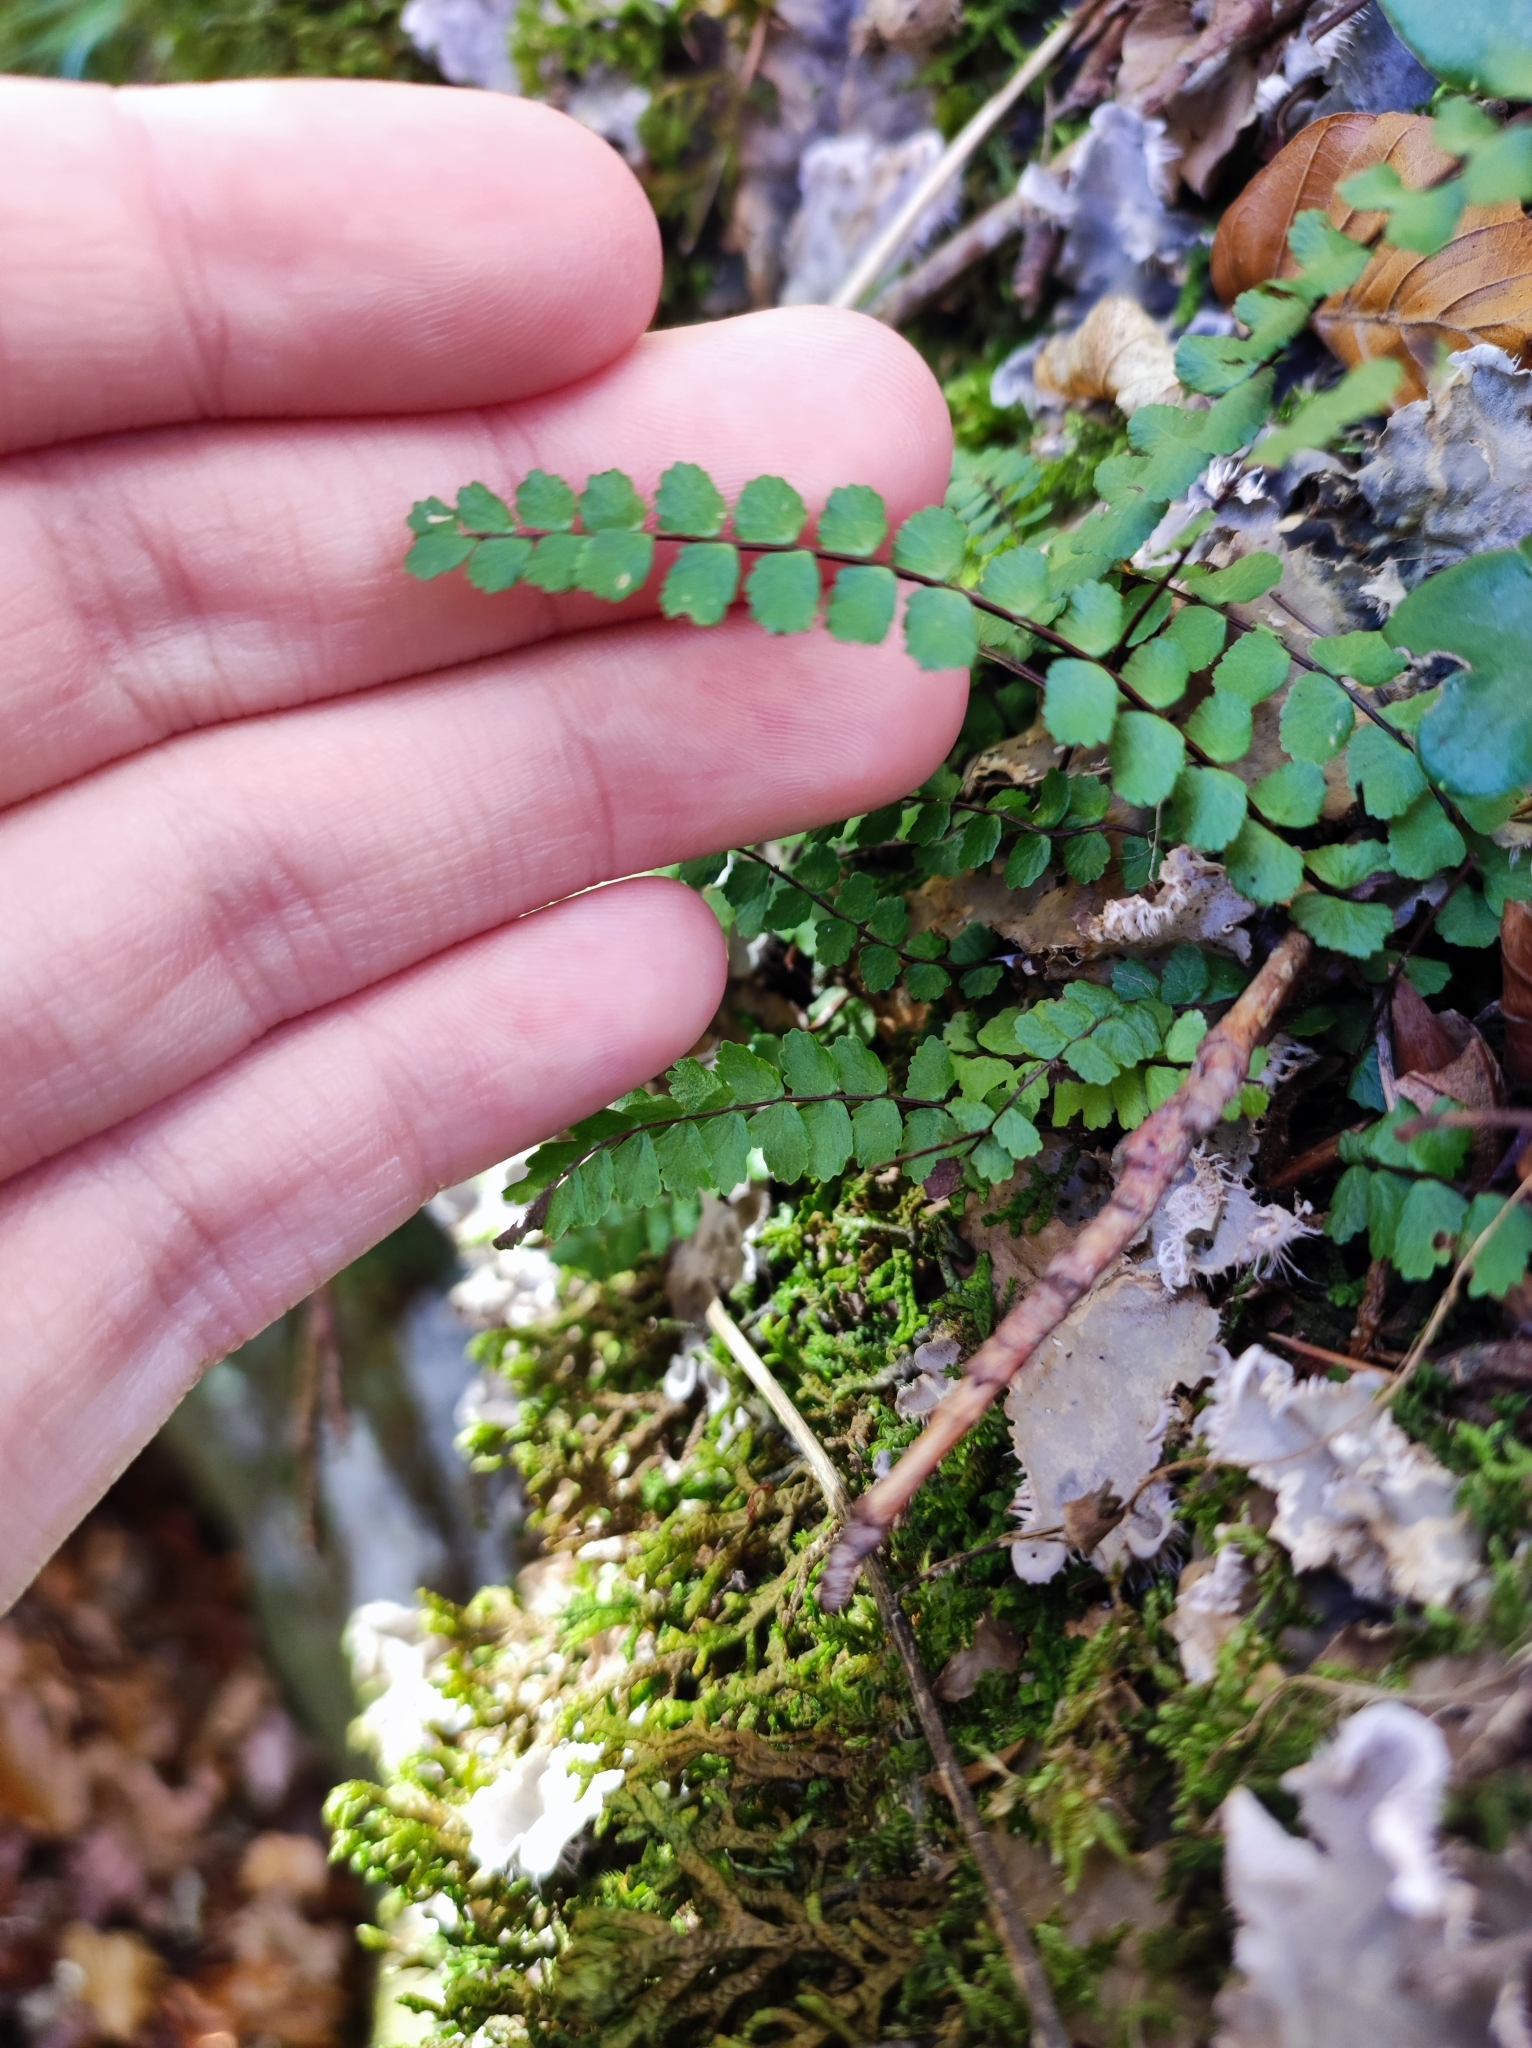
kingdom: Plantae
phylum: Tracheophyta
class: Polypodiopsida
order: Polypodiales
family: Aspleniaceae
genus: Asplenium
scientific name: Asplenium trichomanes
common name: Maidenhair spleenwort
